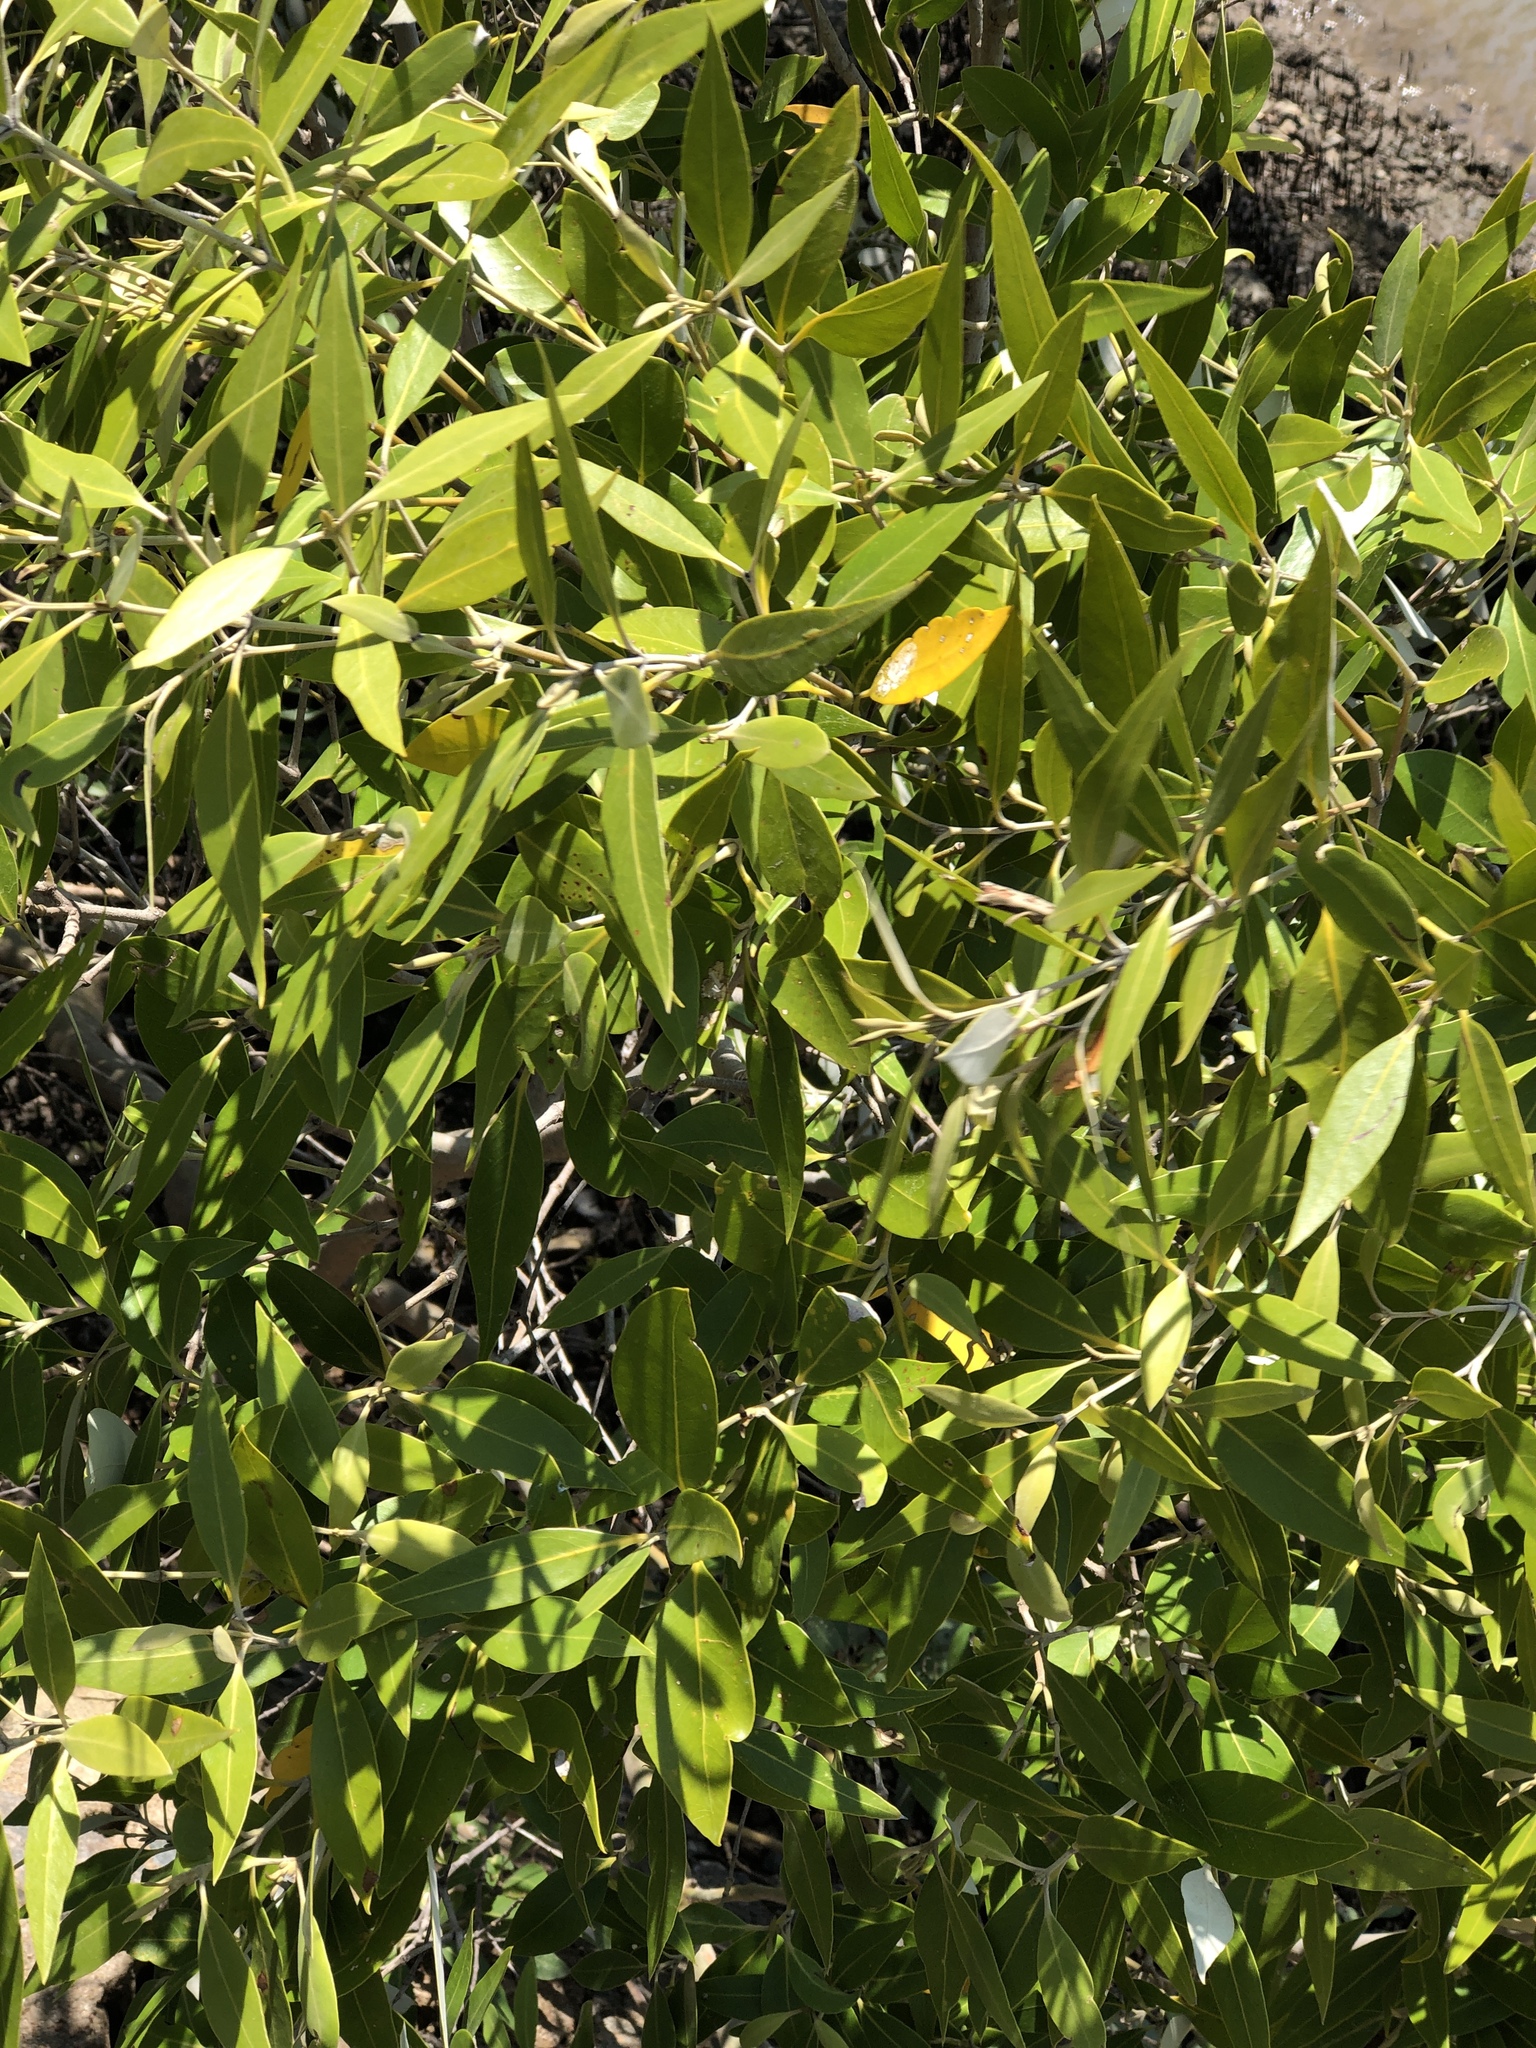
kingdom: Plantae
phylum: Tracheophyta
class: Magnoliopsida
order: Lamiales
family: Acanthaceae
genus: Avicennia
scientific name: Avicennia marina
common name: Gray mangrove
